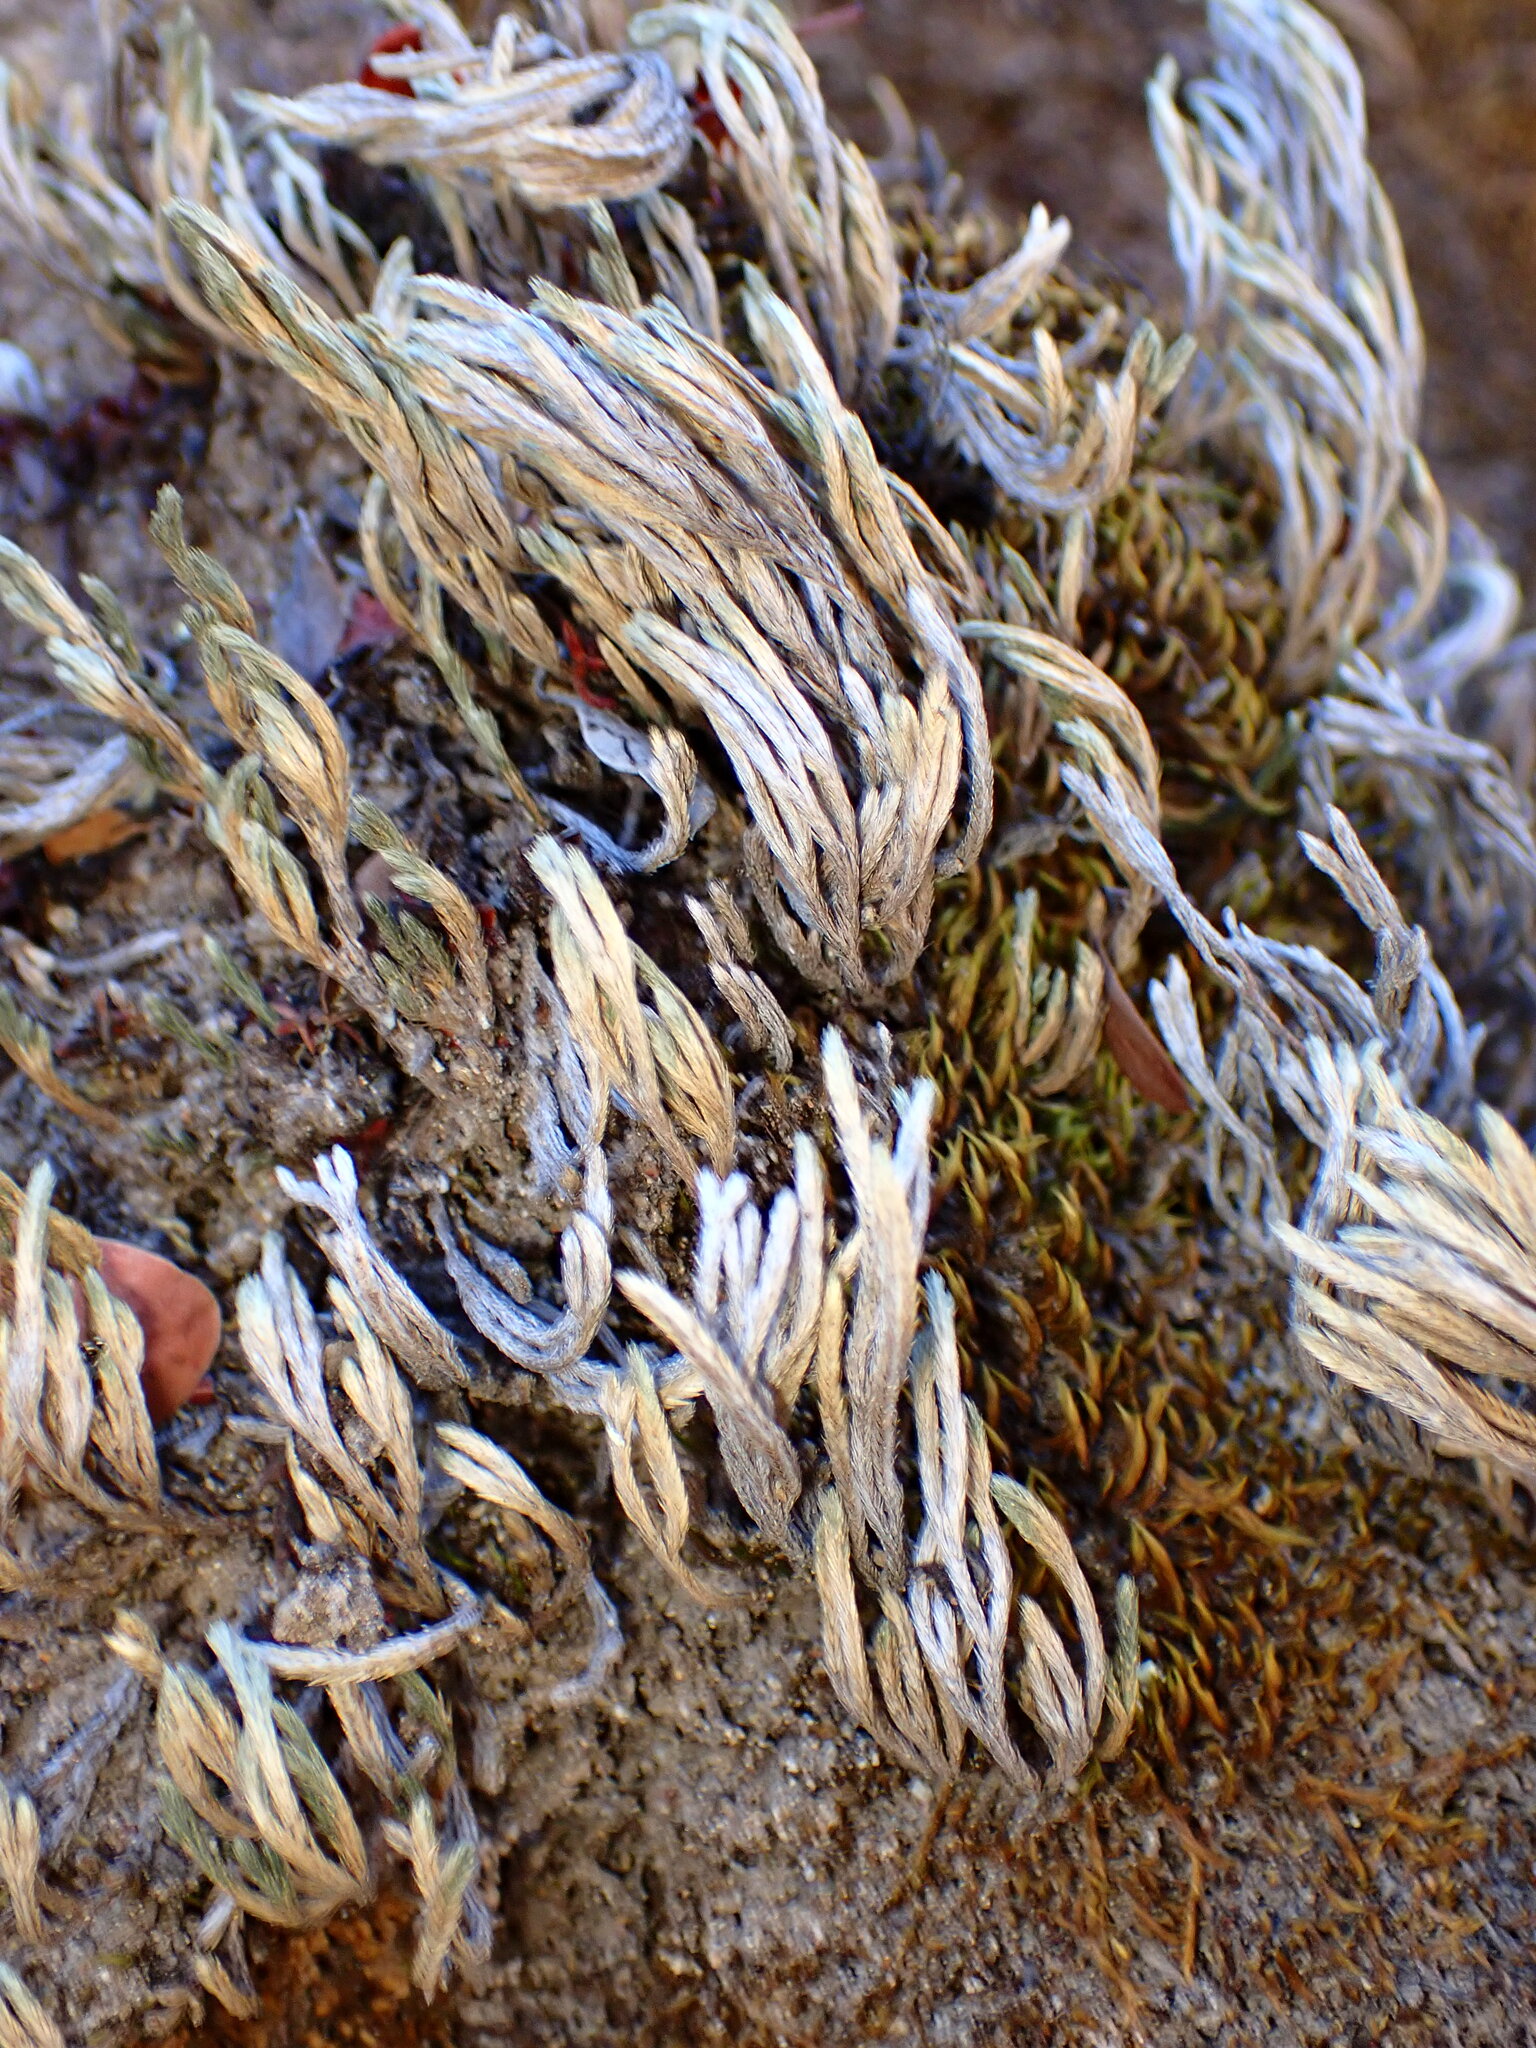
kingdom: Plantae
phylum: Tracheophyta
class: Lycopodiopsida
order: Selaginellales
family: Selaginellaceae
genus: Selaginella
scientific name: Selaginella bigelovii
